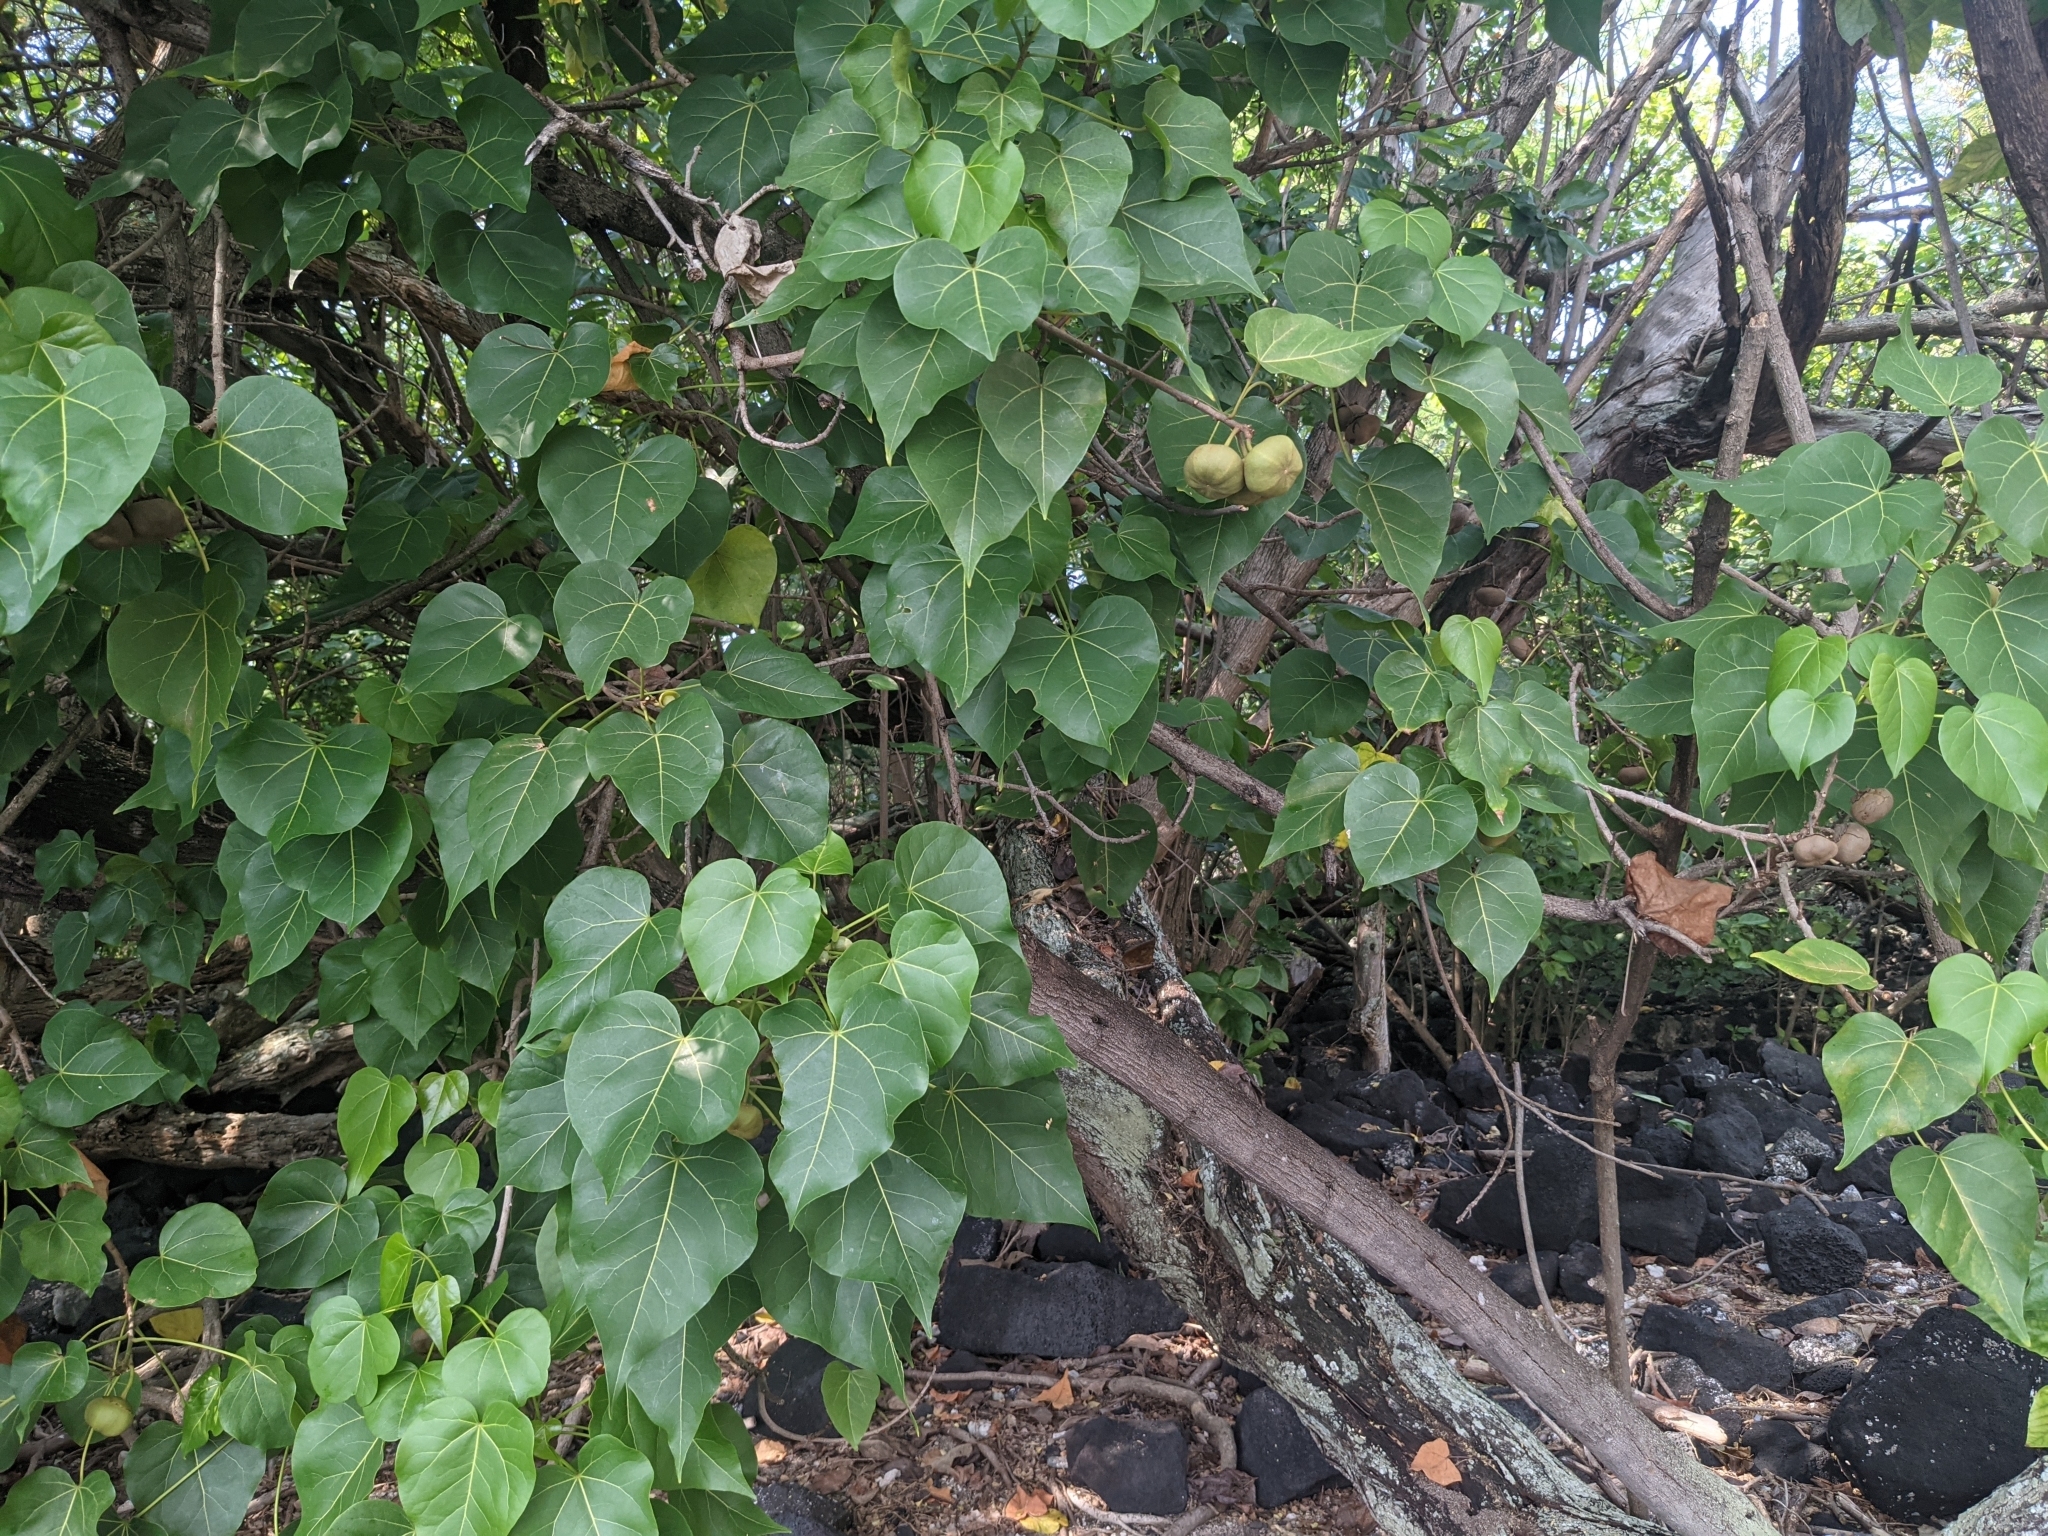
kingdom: Plantae
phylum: Tracheophyta
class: Magnoliopsida
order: Malvales
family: Malvaceae
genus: Thespesia
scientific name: Thespesia populnea
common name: Seaside mahoe
